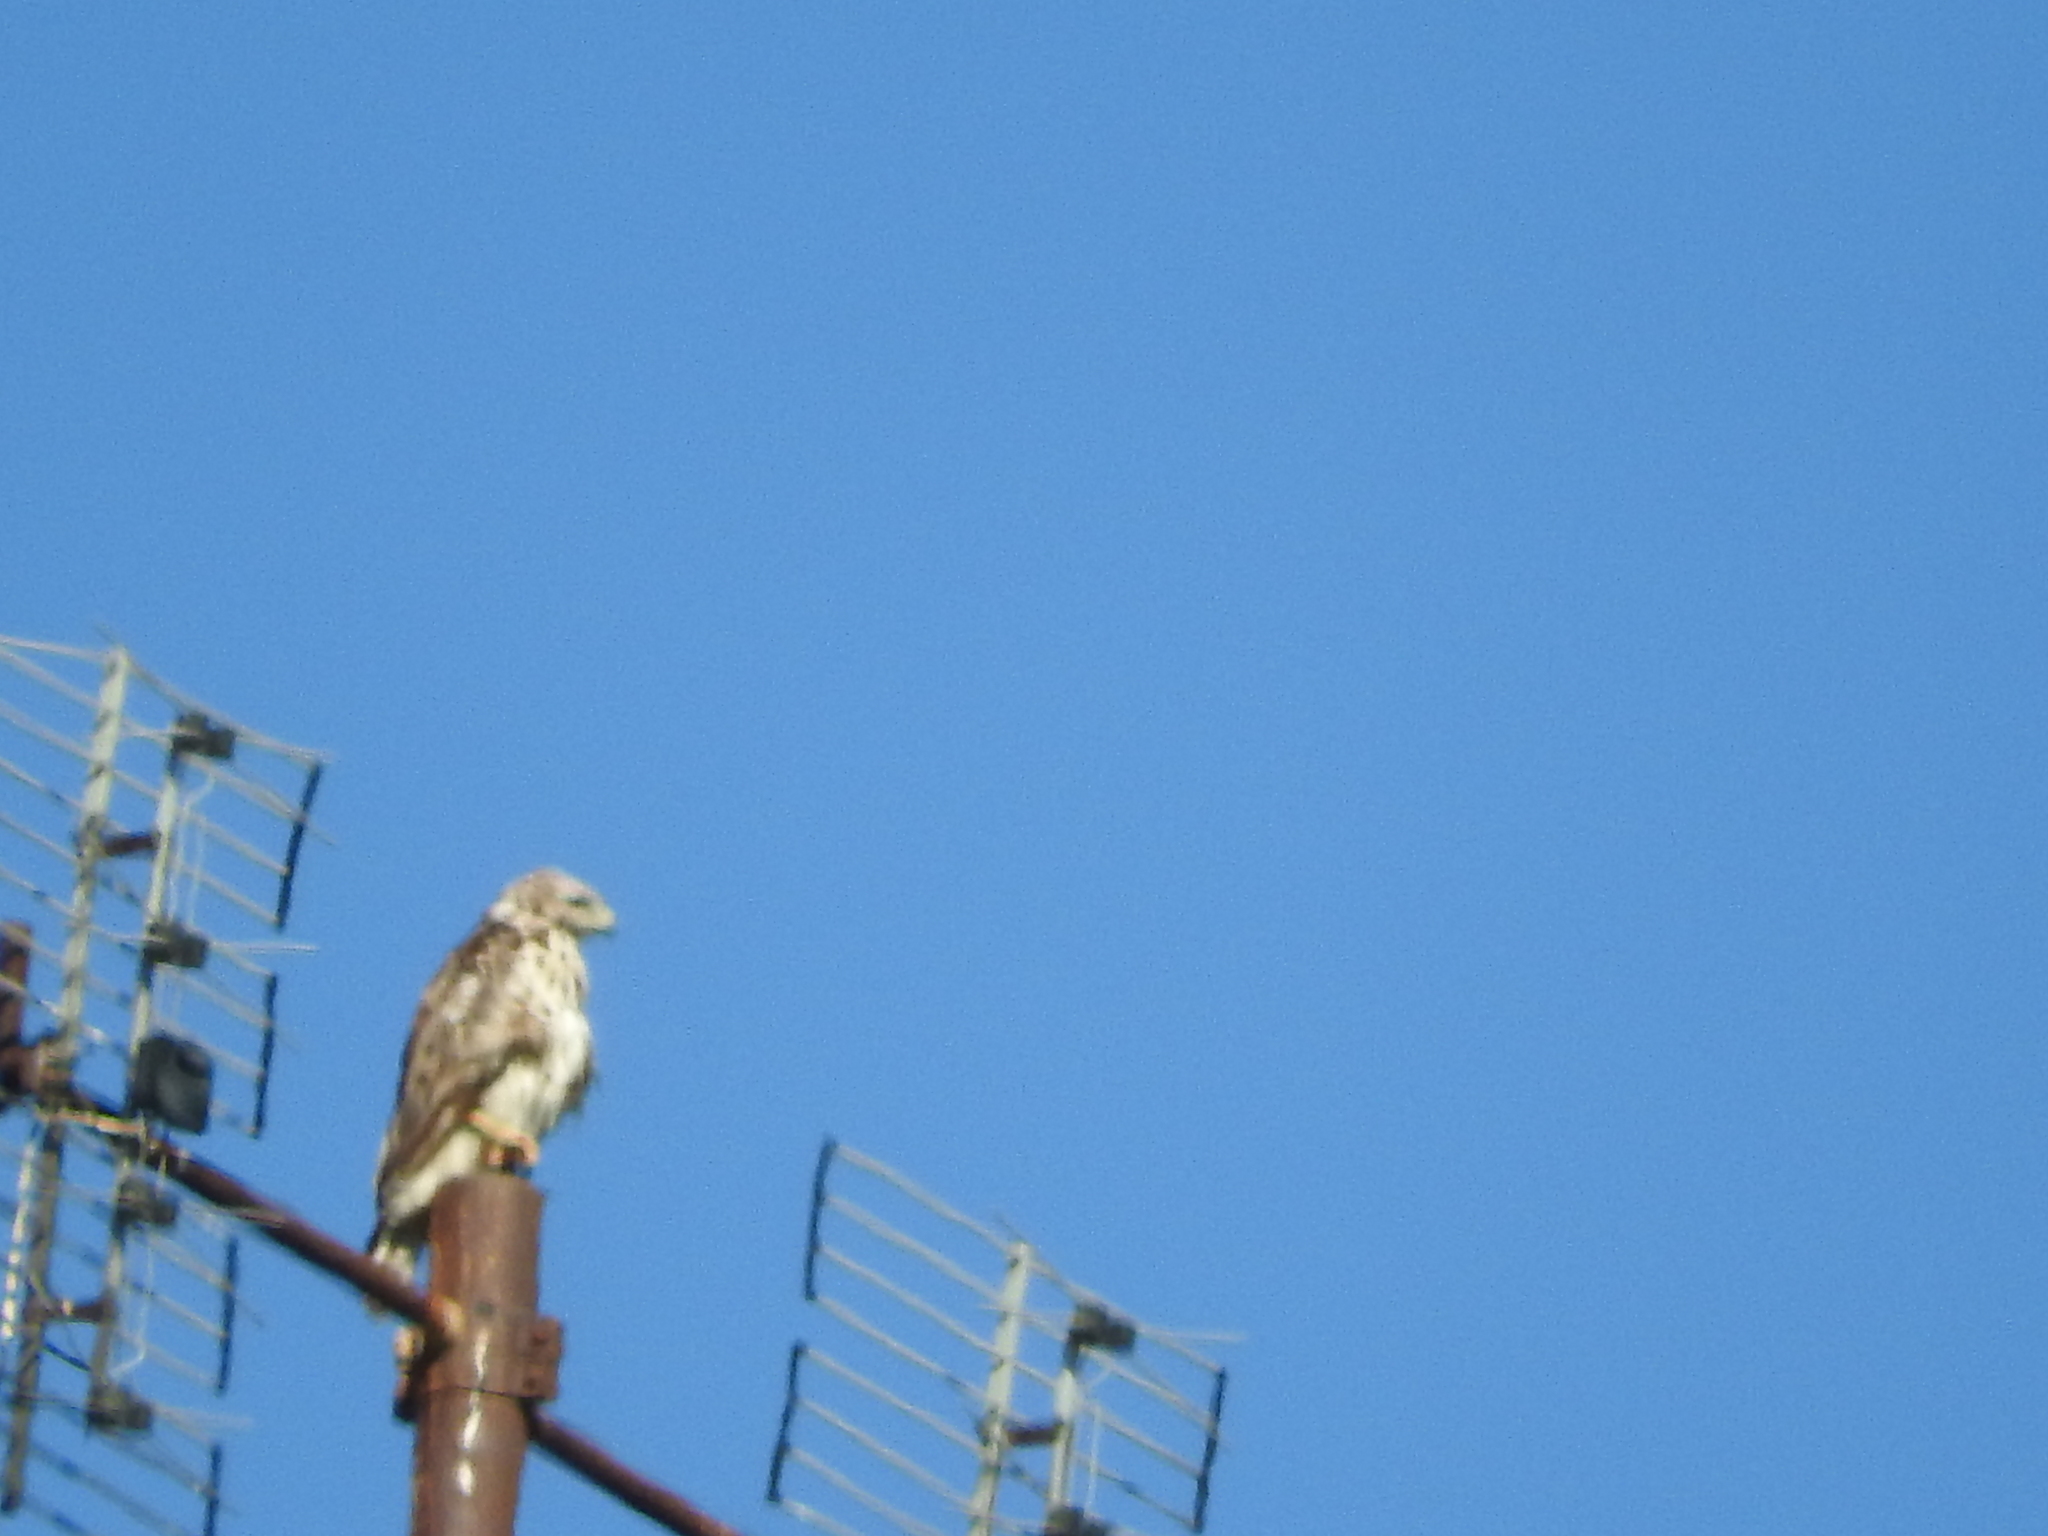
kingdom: Animalia
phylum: Chordata
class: Aves
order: Accipitriformes
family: Accipitridae
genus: Buteo
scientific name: Buteo buteo
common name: Common buzzard
